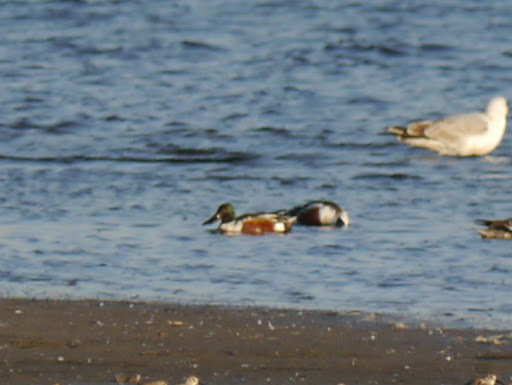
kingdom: Animalia
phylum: Chordata
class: Aves
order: Anseriformes
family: Anatidae
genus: Spatula
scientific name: Spatula clypeata
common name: Northern shoveler
